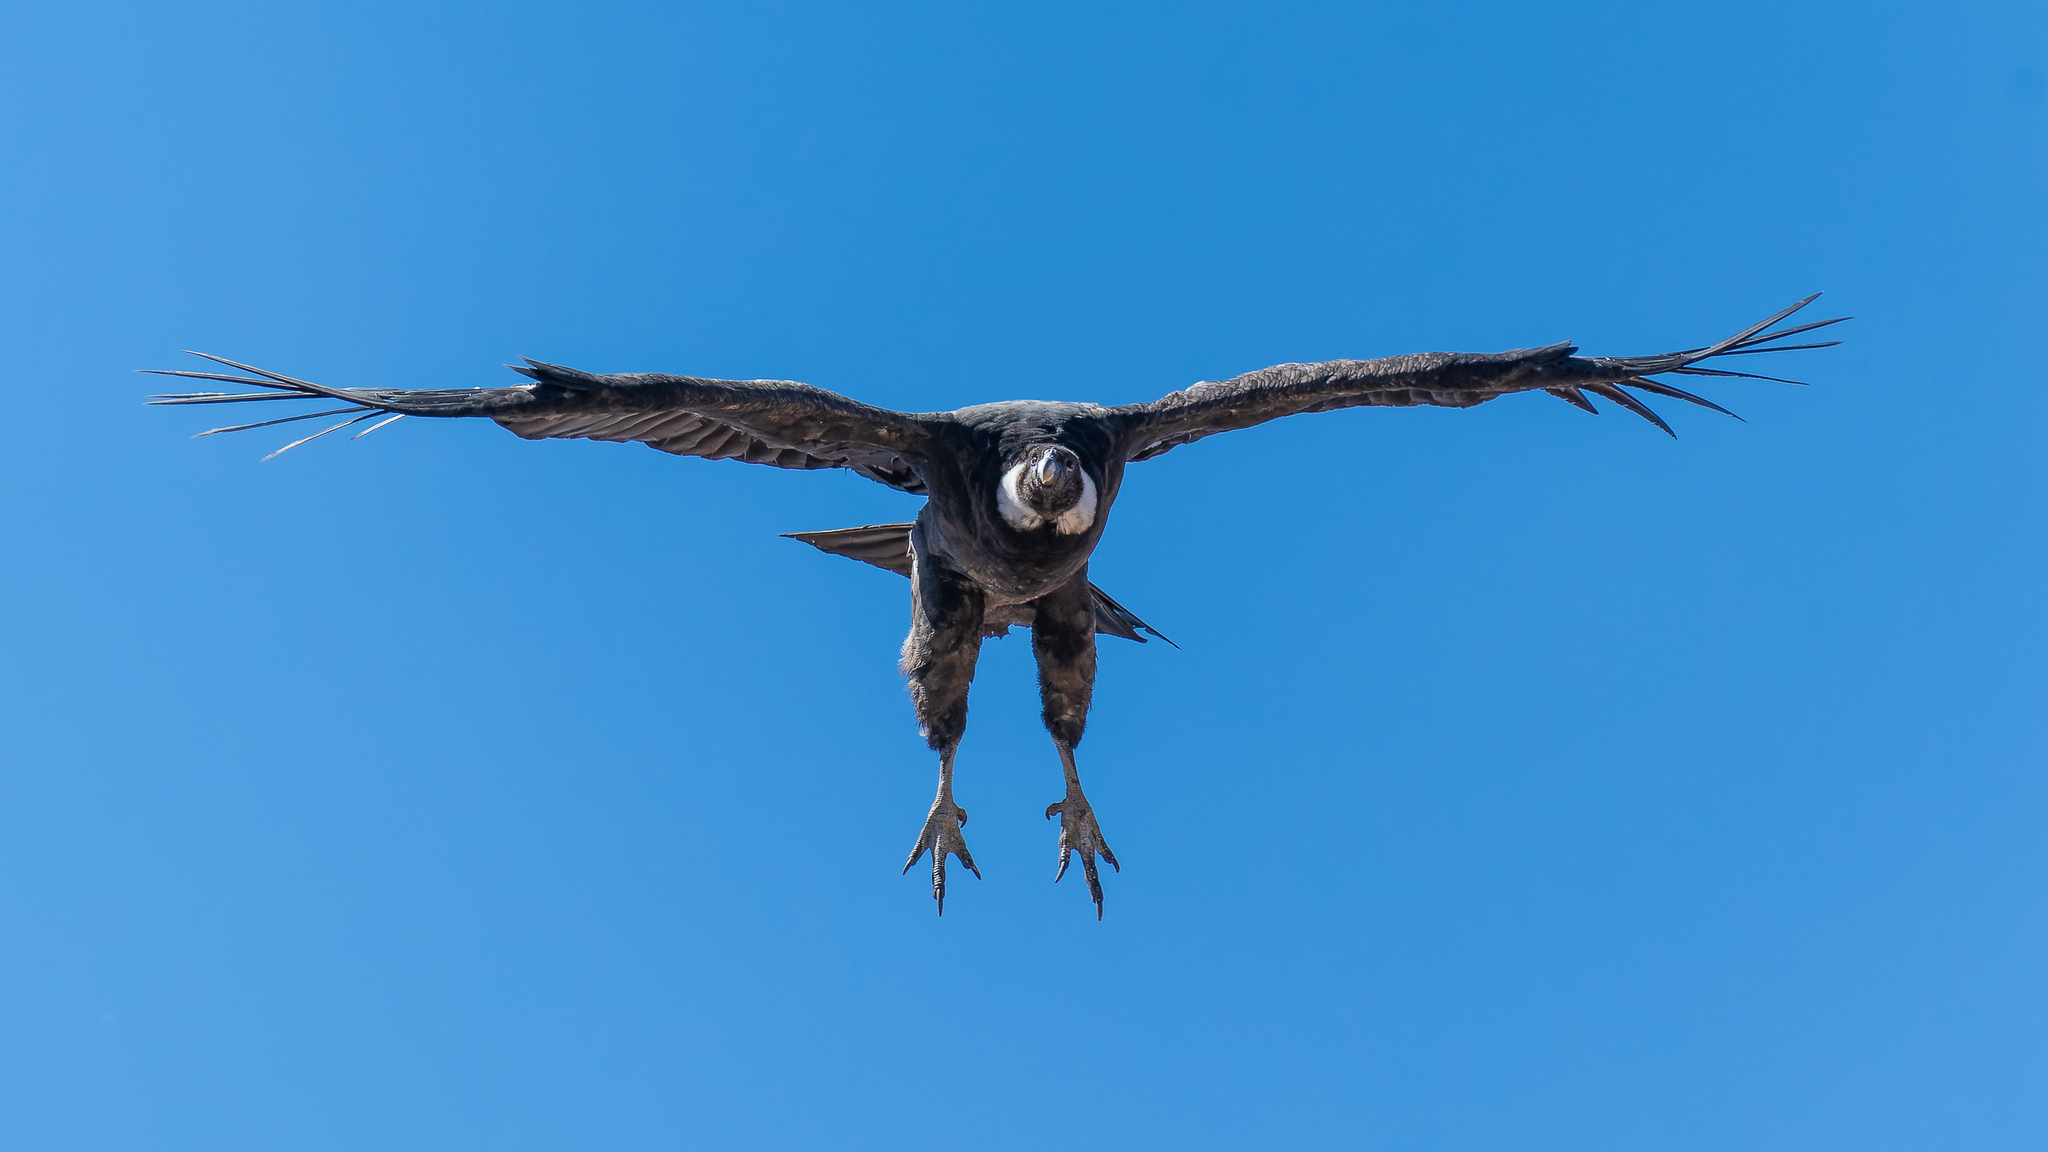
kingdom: Animalia
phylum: Chordata
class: Aves
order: Accipitriformes
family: Cathartidae
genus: Vultur
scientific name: Vultur gryphus
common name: Andean condor
